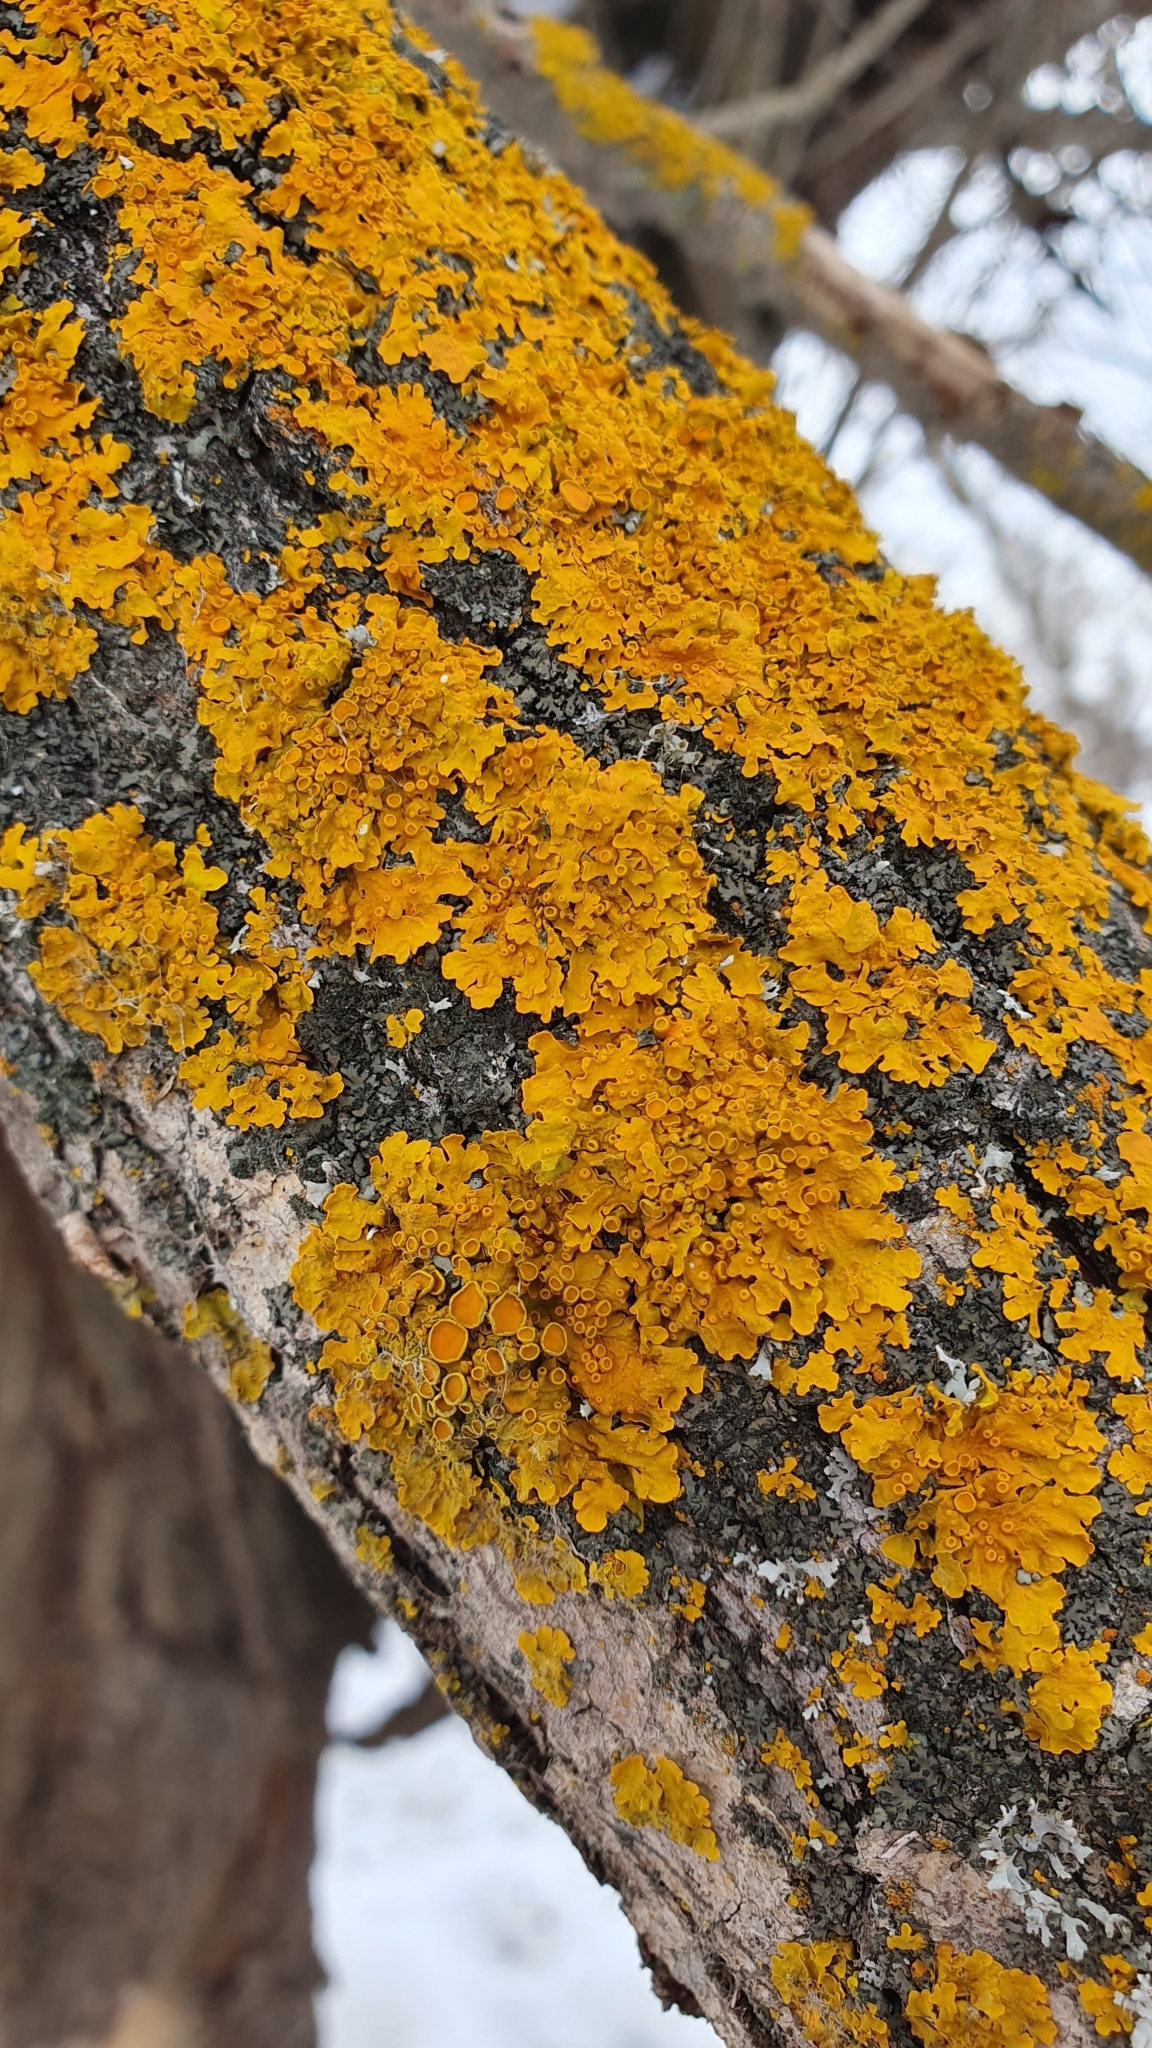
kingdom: Fungi
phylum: Ascomycota
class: Lecanoromycetes
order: Teloschistales
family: Teloschistaceae
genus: Xanthoria
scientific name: Xanthoria parietina
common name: Common orange lichen
